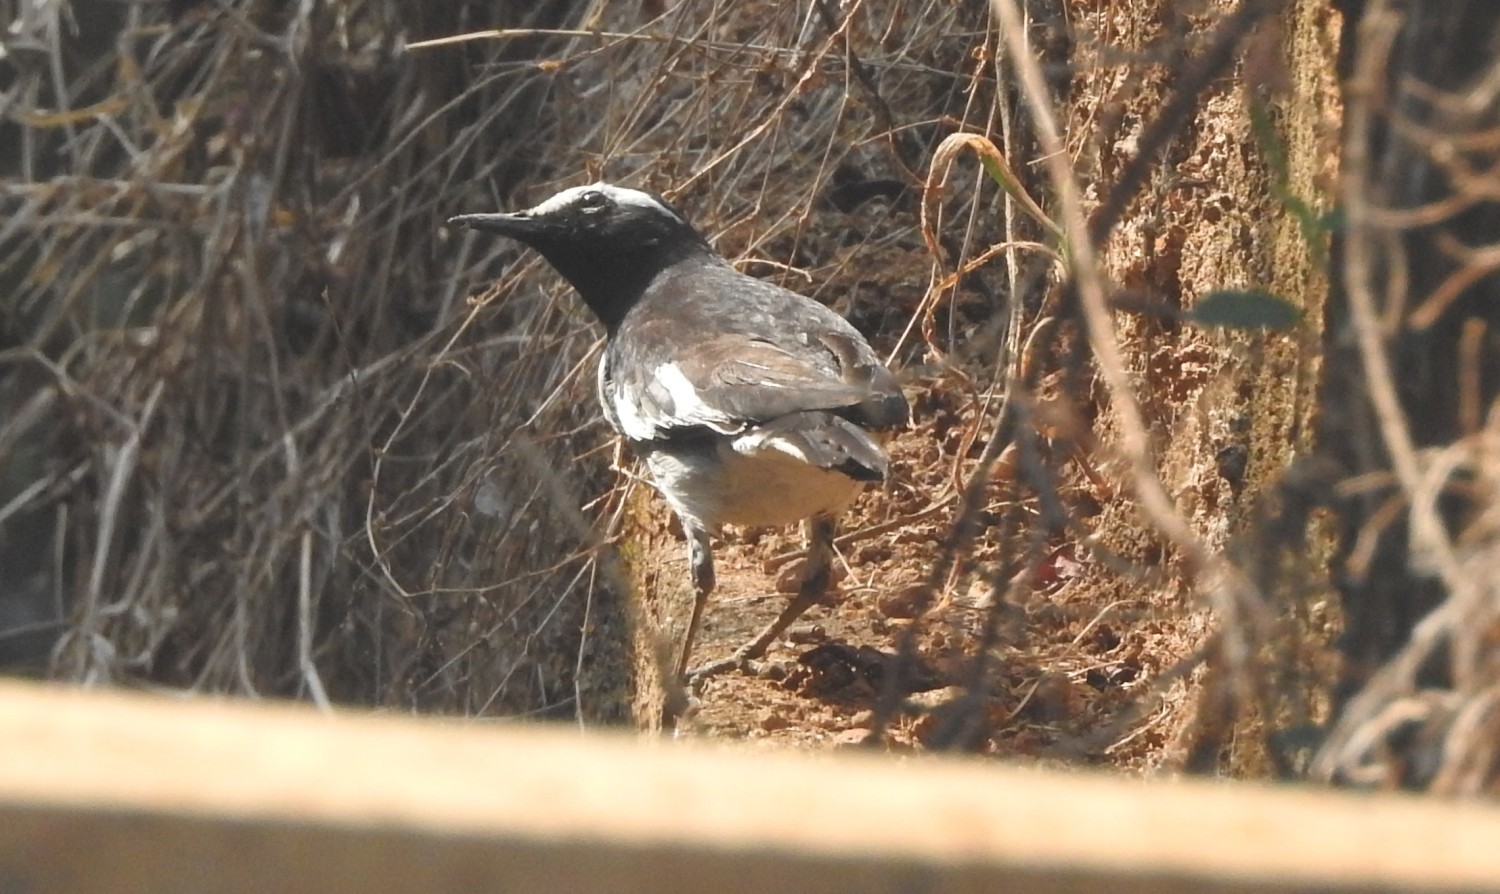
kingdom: Animalia
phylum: Chordata
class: Aves
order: Passeriformes
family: Motacillidae
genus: Motacilla
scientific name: Motacilla maderaspatensis
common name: White-browed wagtail
